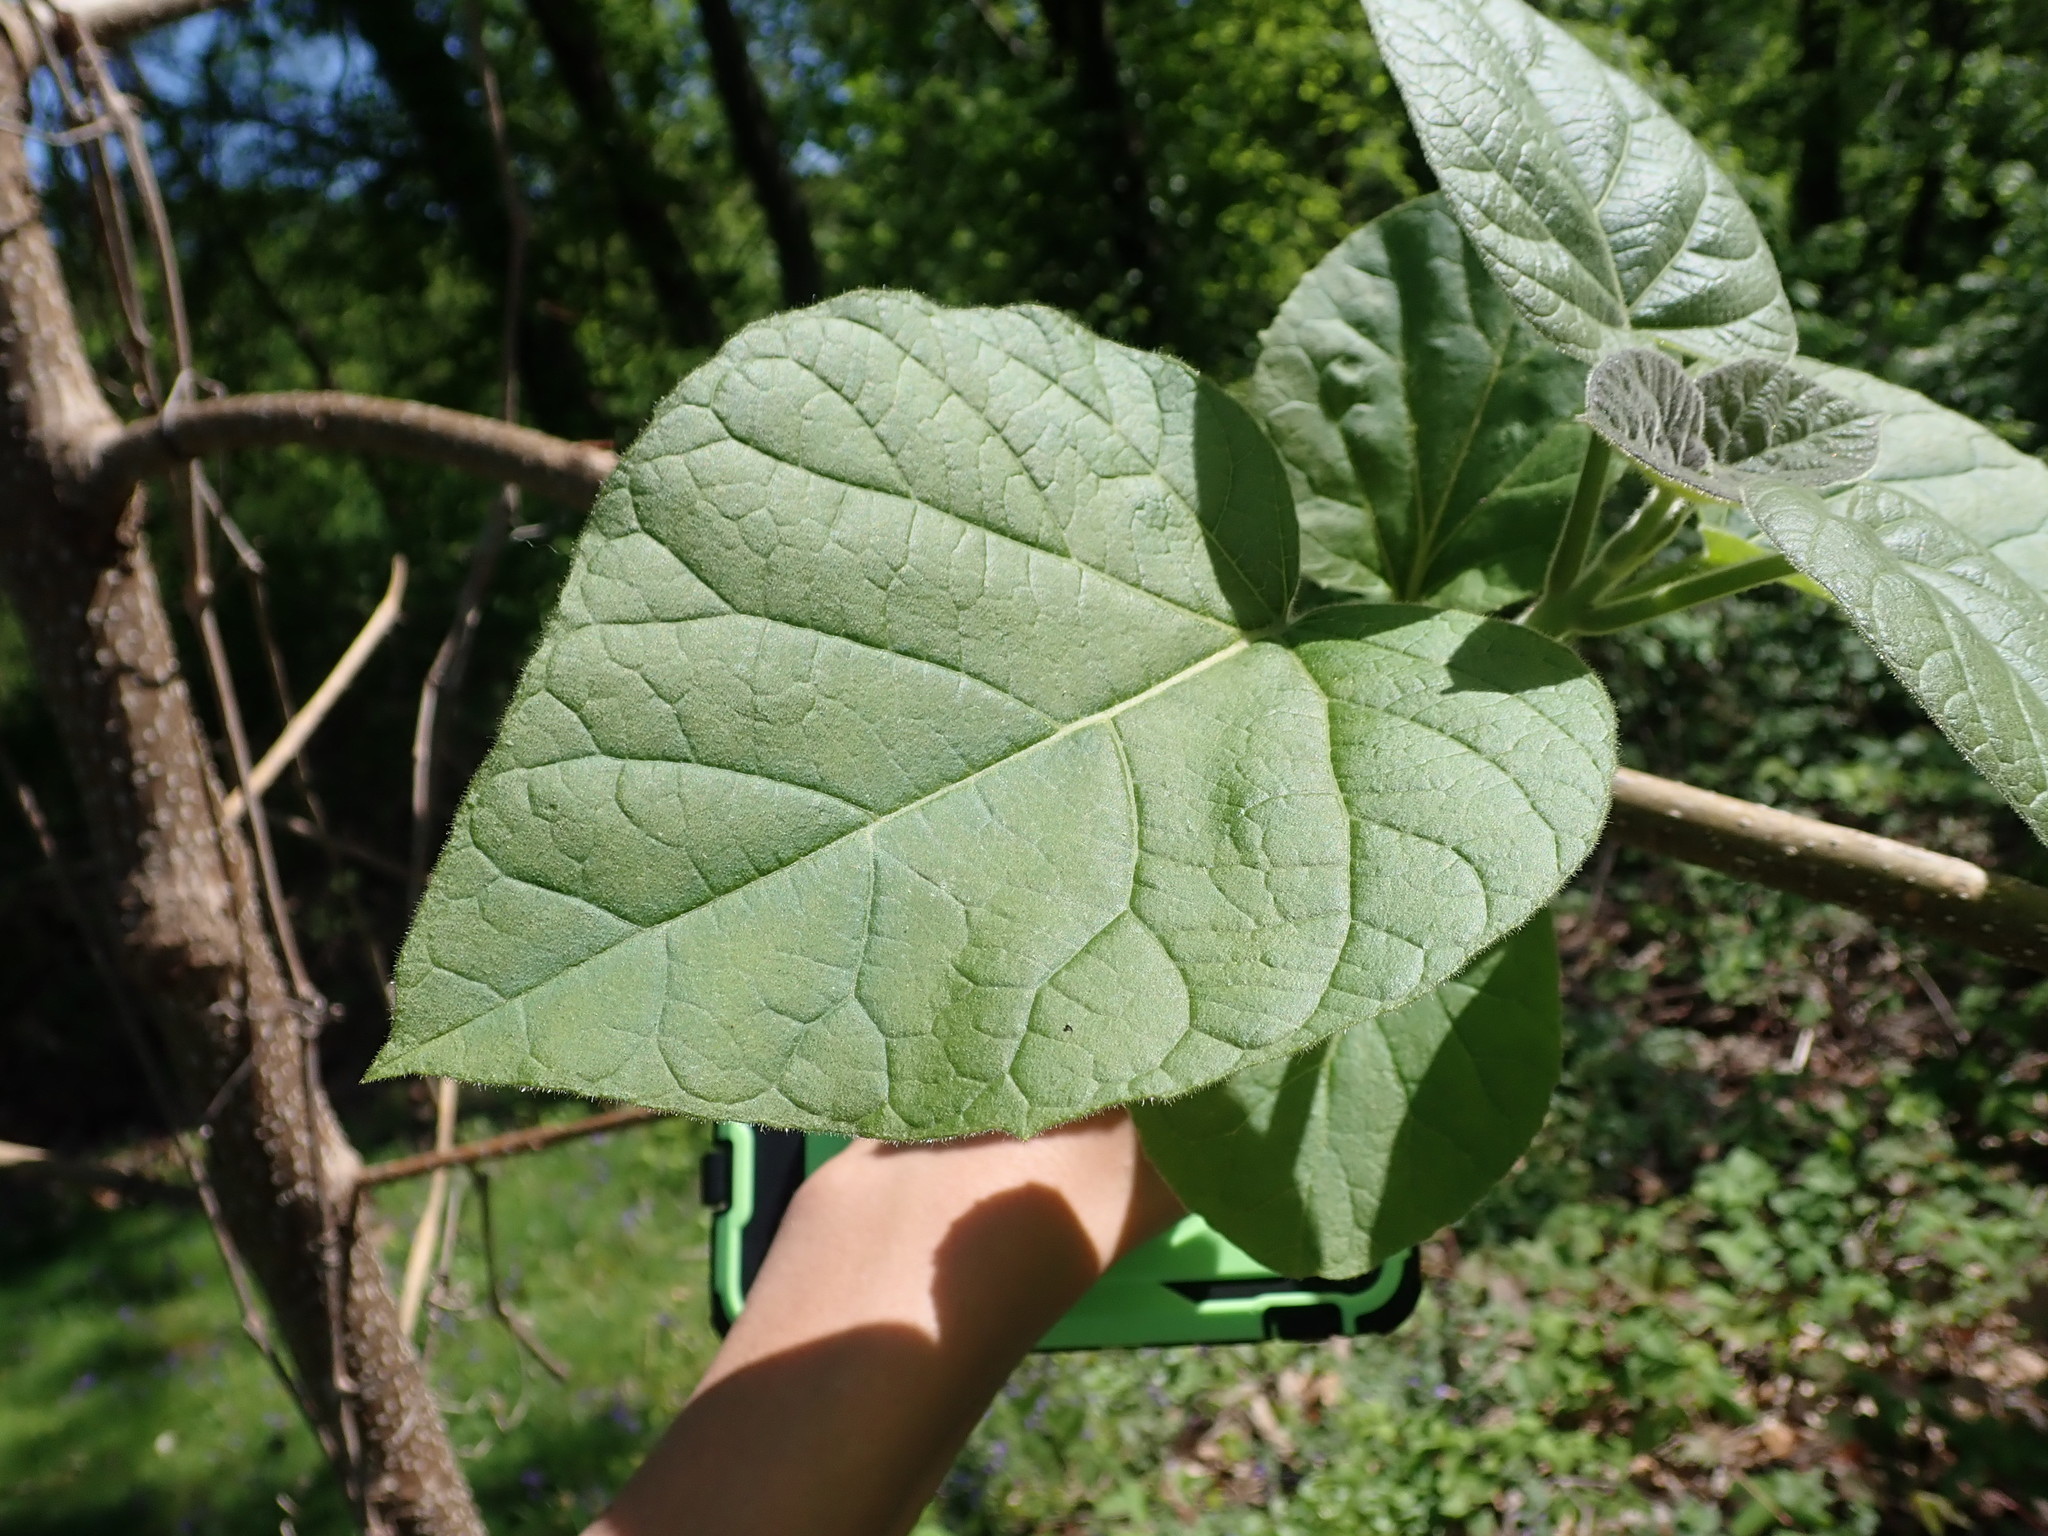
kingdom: Plantae
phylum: Tracheophyta
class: Magnoliopsida
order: Lamiales
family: Paulowniaceae
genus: Paulownia
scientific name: Paulownia tomentosa
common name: Foxglove-tree
